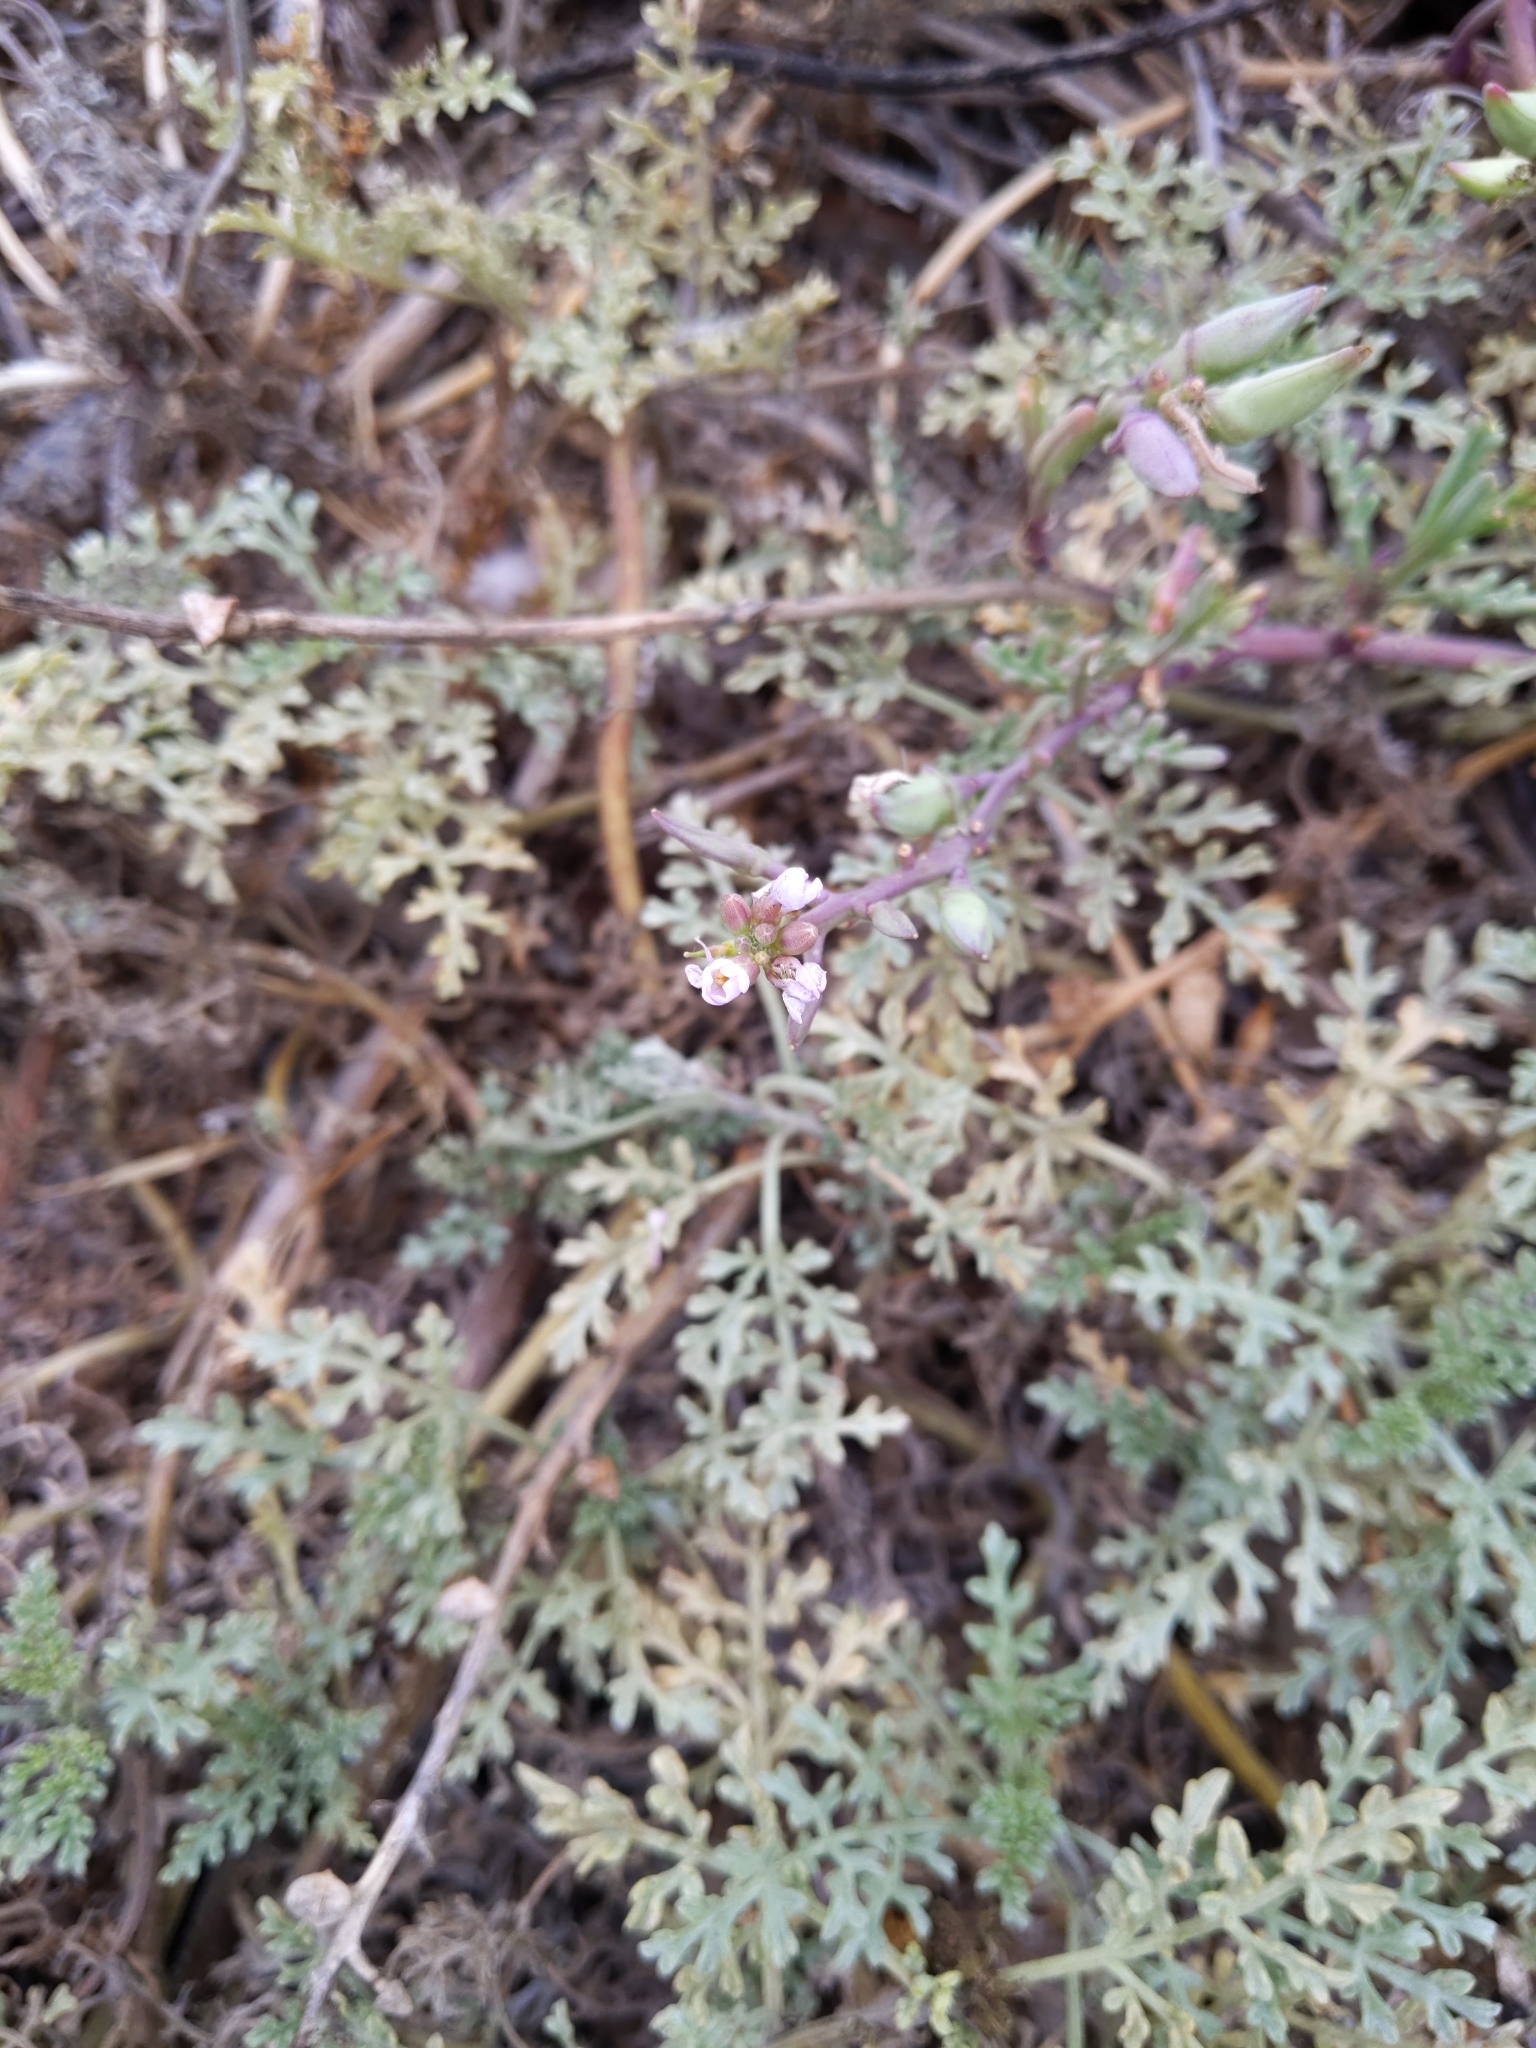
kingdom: Plantae
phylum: Tracheophyta
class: Magnoliopsida
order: Brassicales
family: Brassicaceae
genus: Cakile
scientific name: Cakile maritima
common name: Sea rocket
